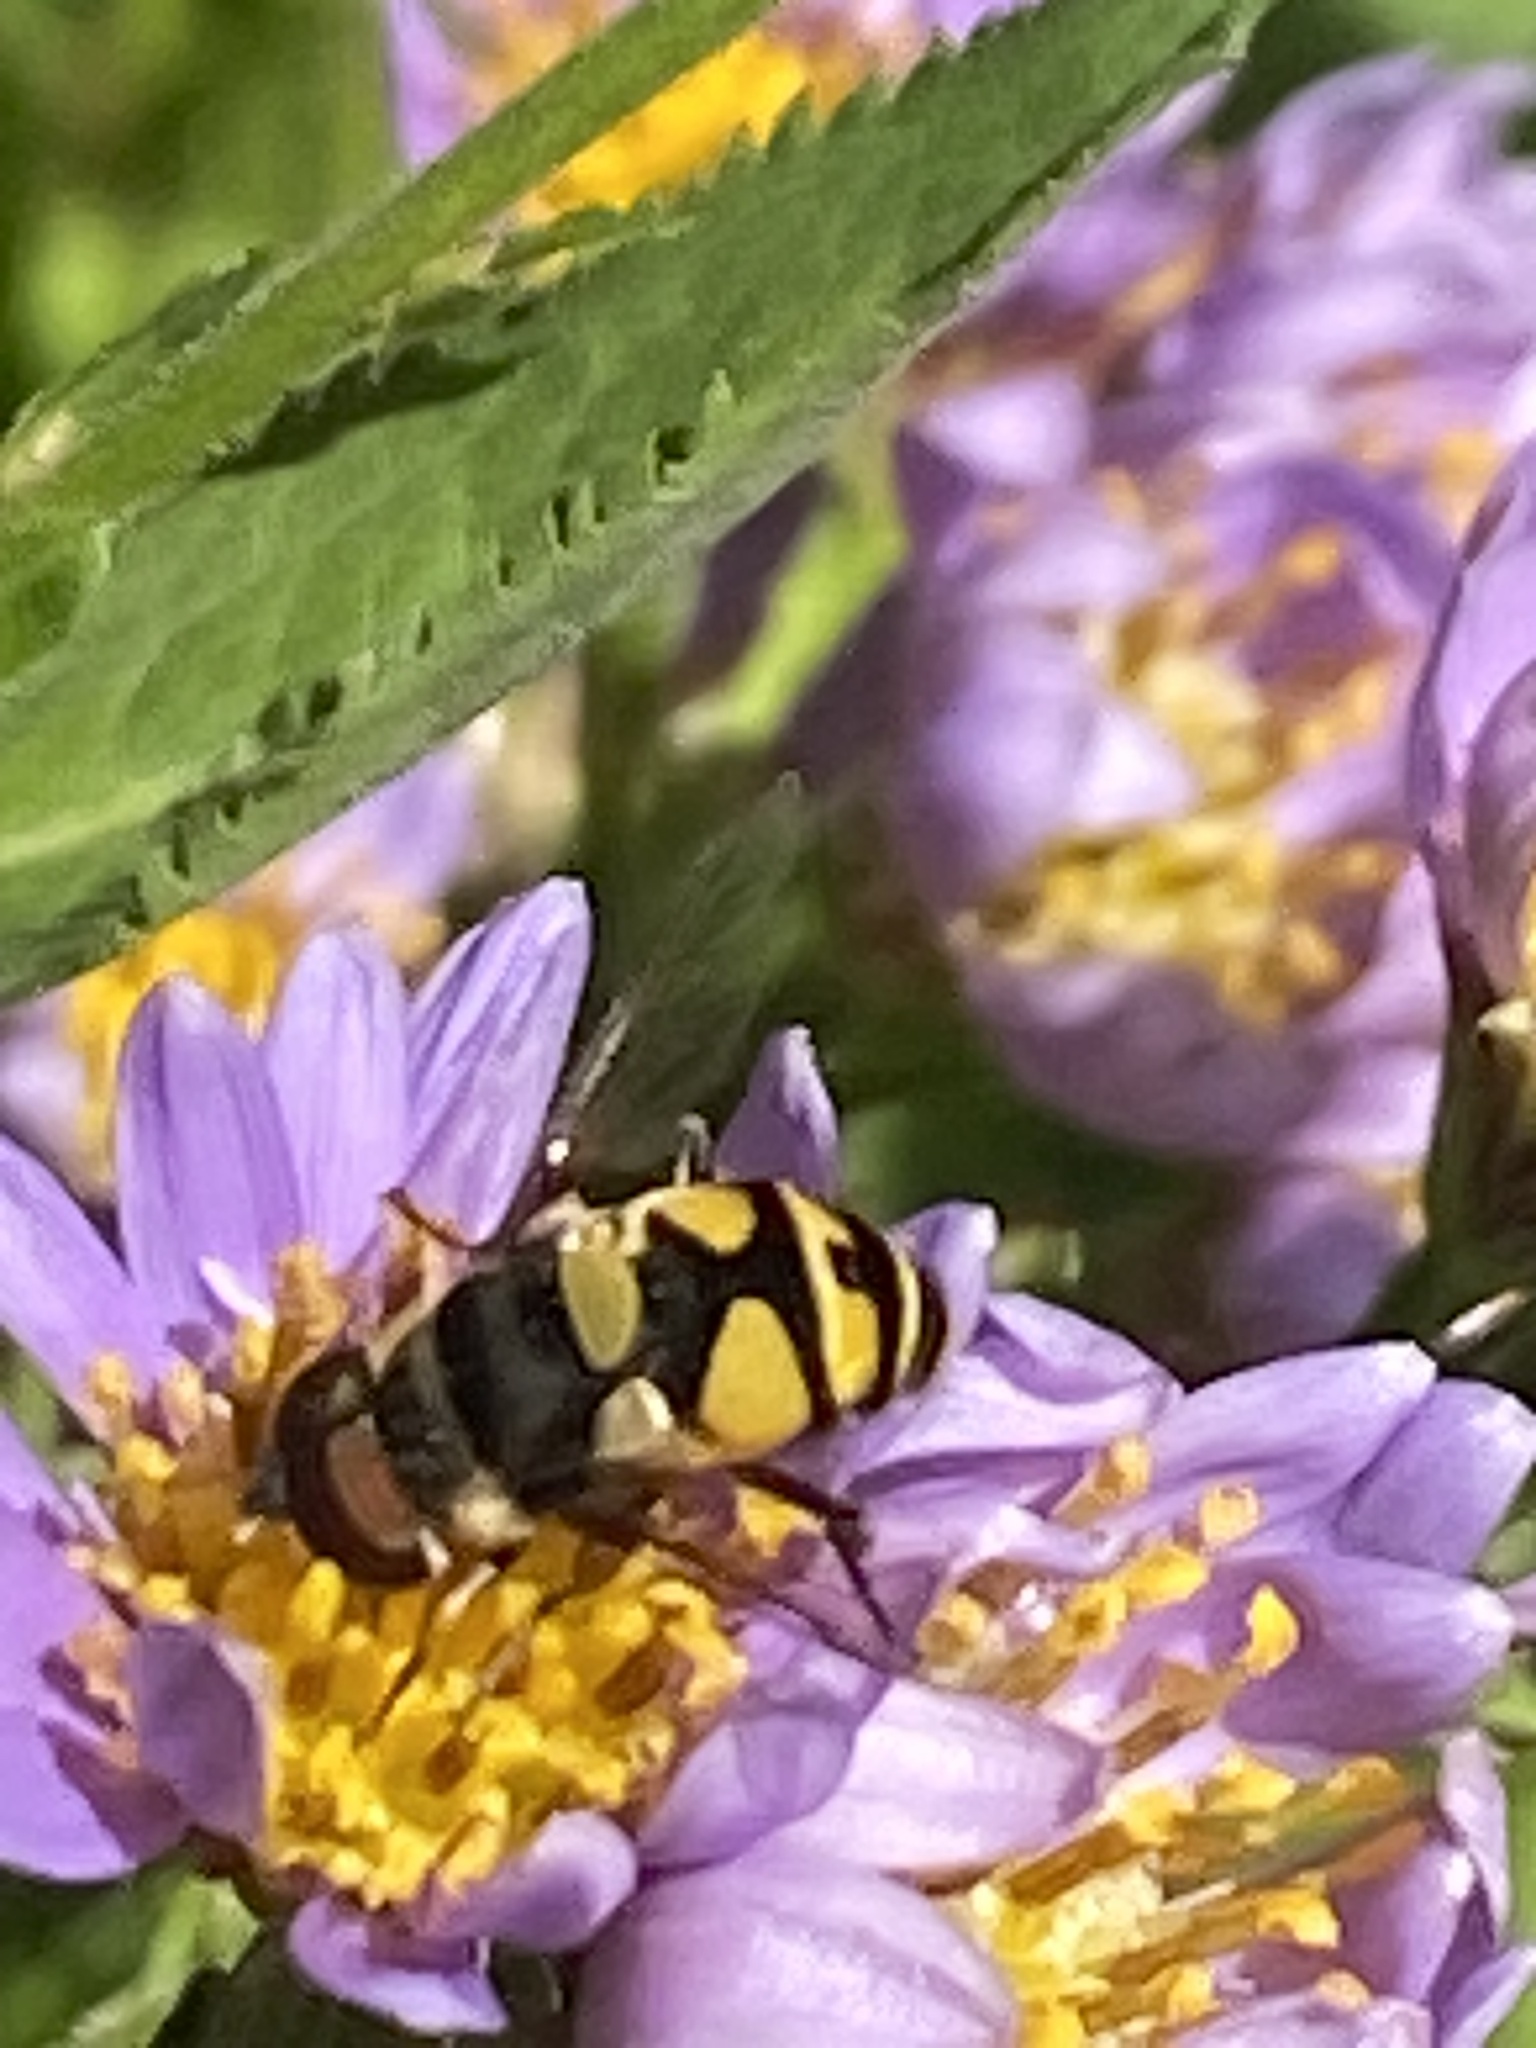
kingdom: Animalia
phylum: Arthropoda
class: Insecta
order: Diptera
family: Syrphidae
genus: Eristalis
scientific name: Eristalis transversa
